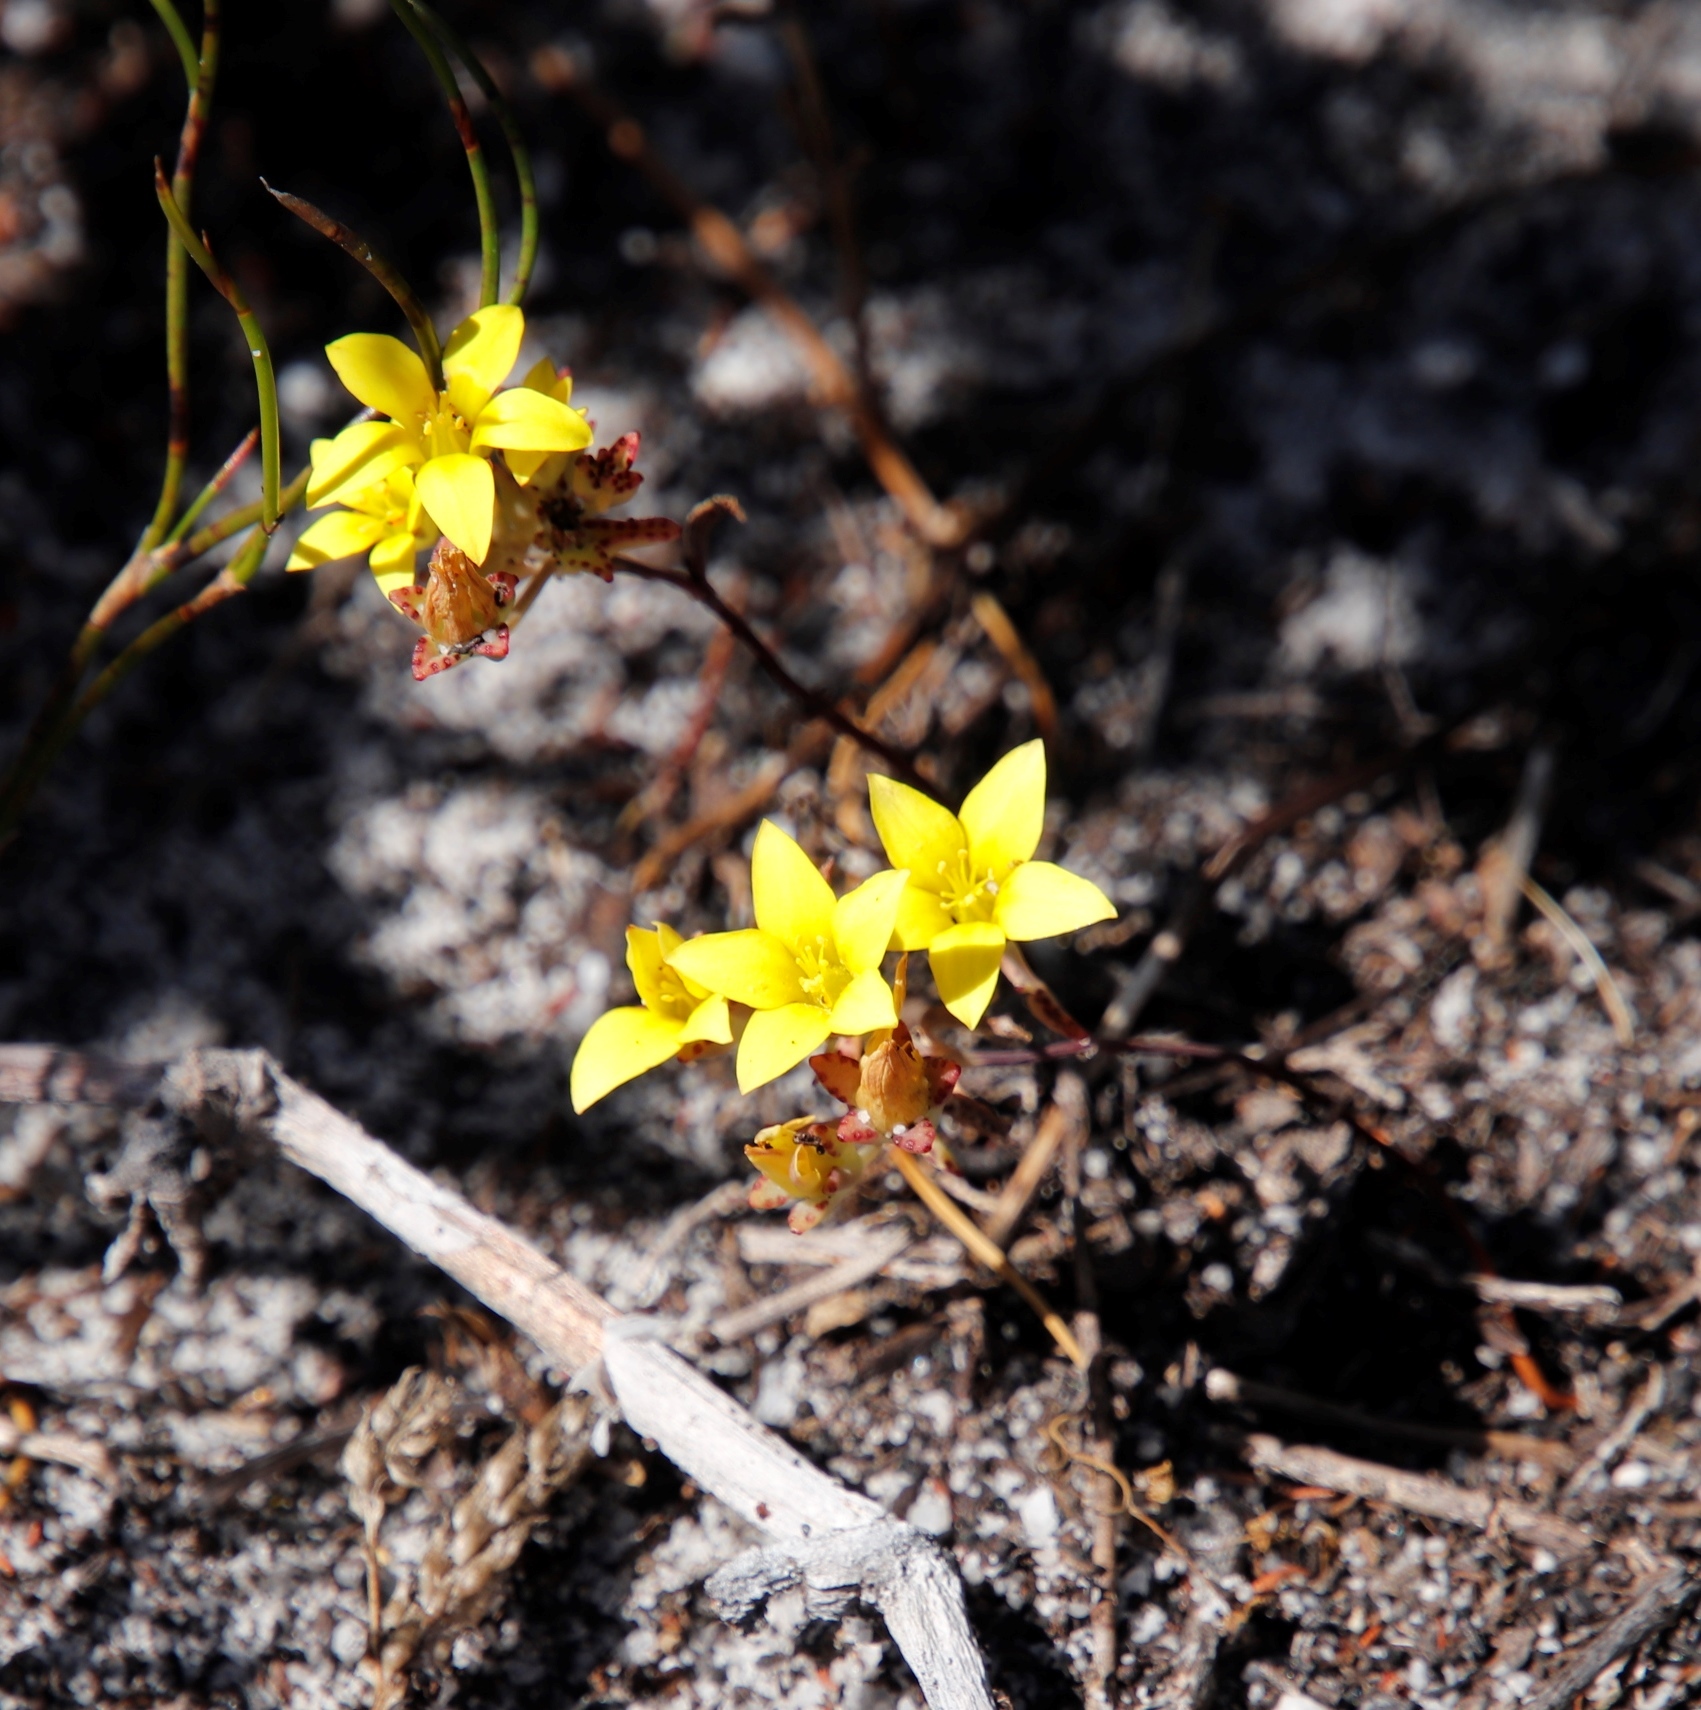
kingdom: Plantae
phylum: Tracheophyta
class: Magnoliopsida
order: Saxifragales
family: Crassulaceae
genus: Crassula
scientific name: Crassula dichotoma
